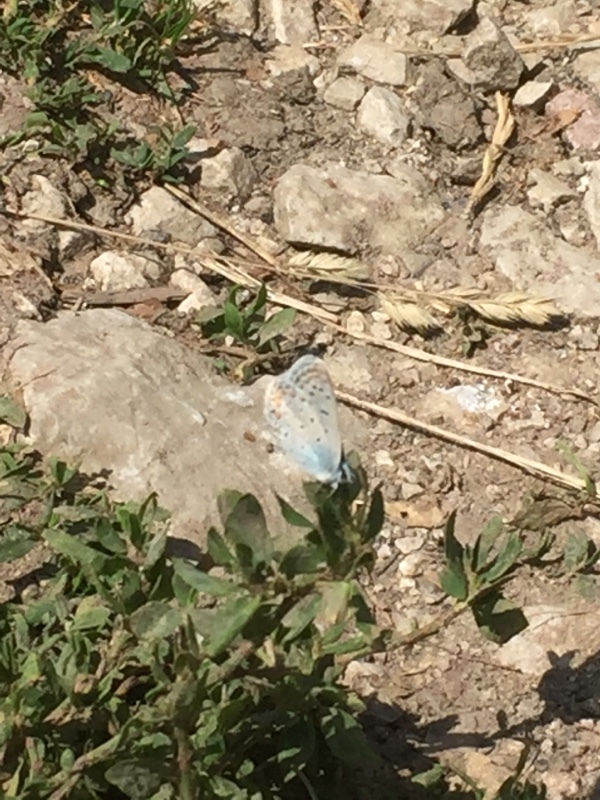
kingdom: Animalia
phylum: Arthropoda
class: Insecta
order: Lepidoptera
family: Lycaenidae
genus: Polyommatus
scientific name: Polyommatus icarus
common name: Common blue
